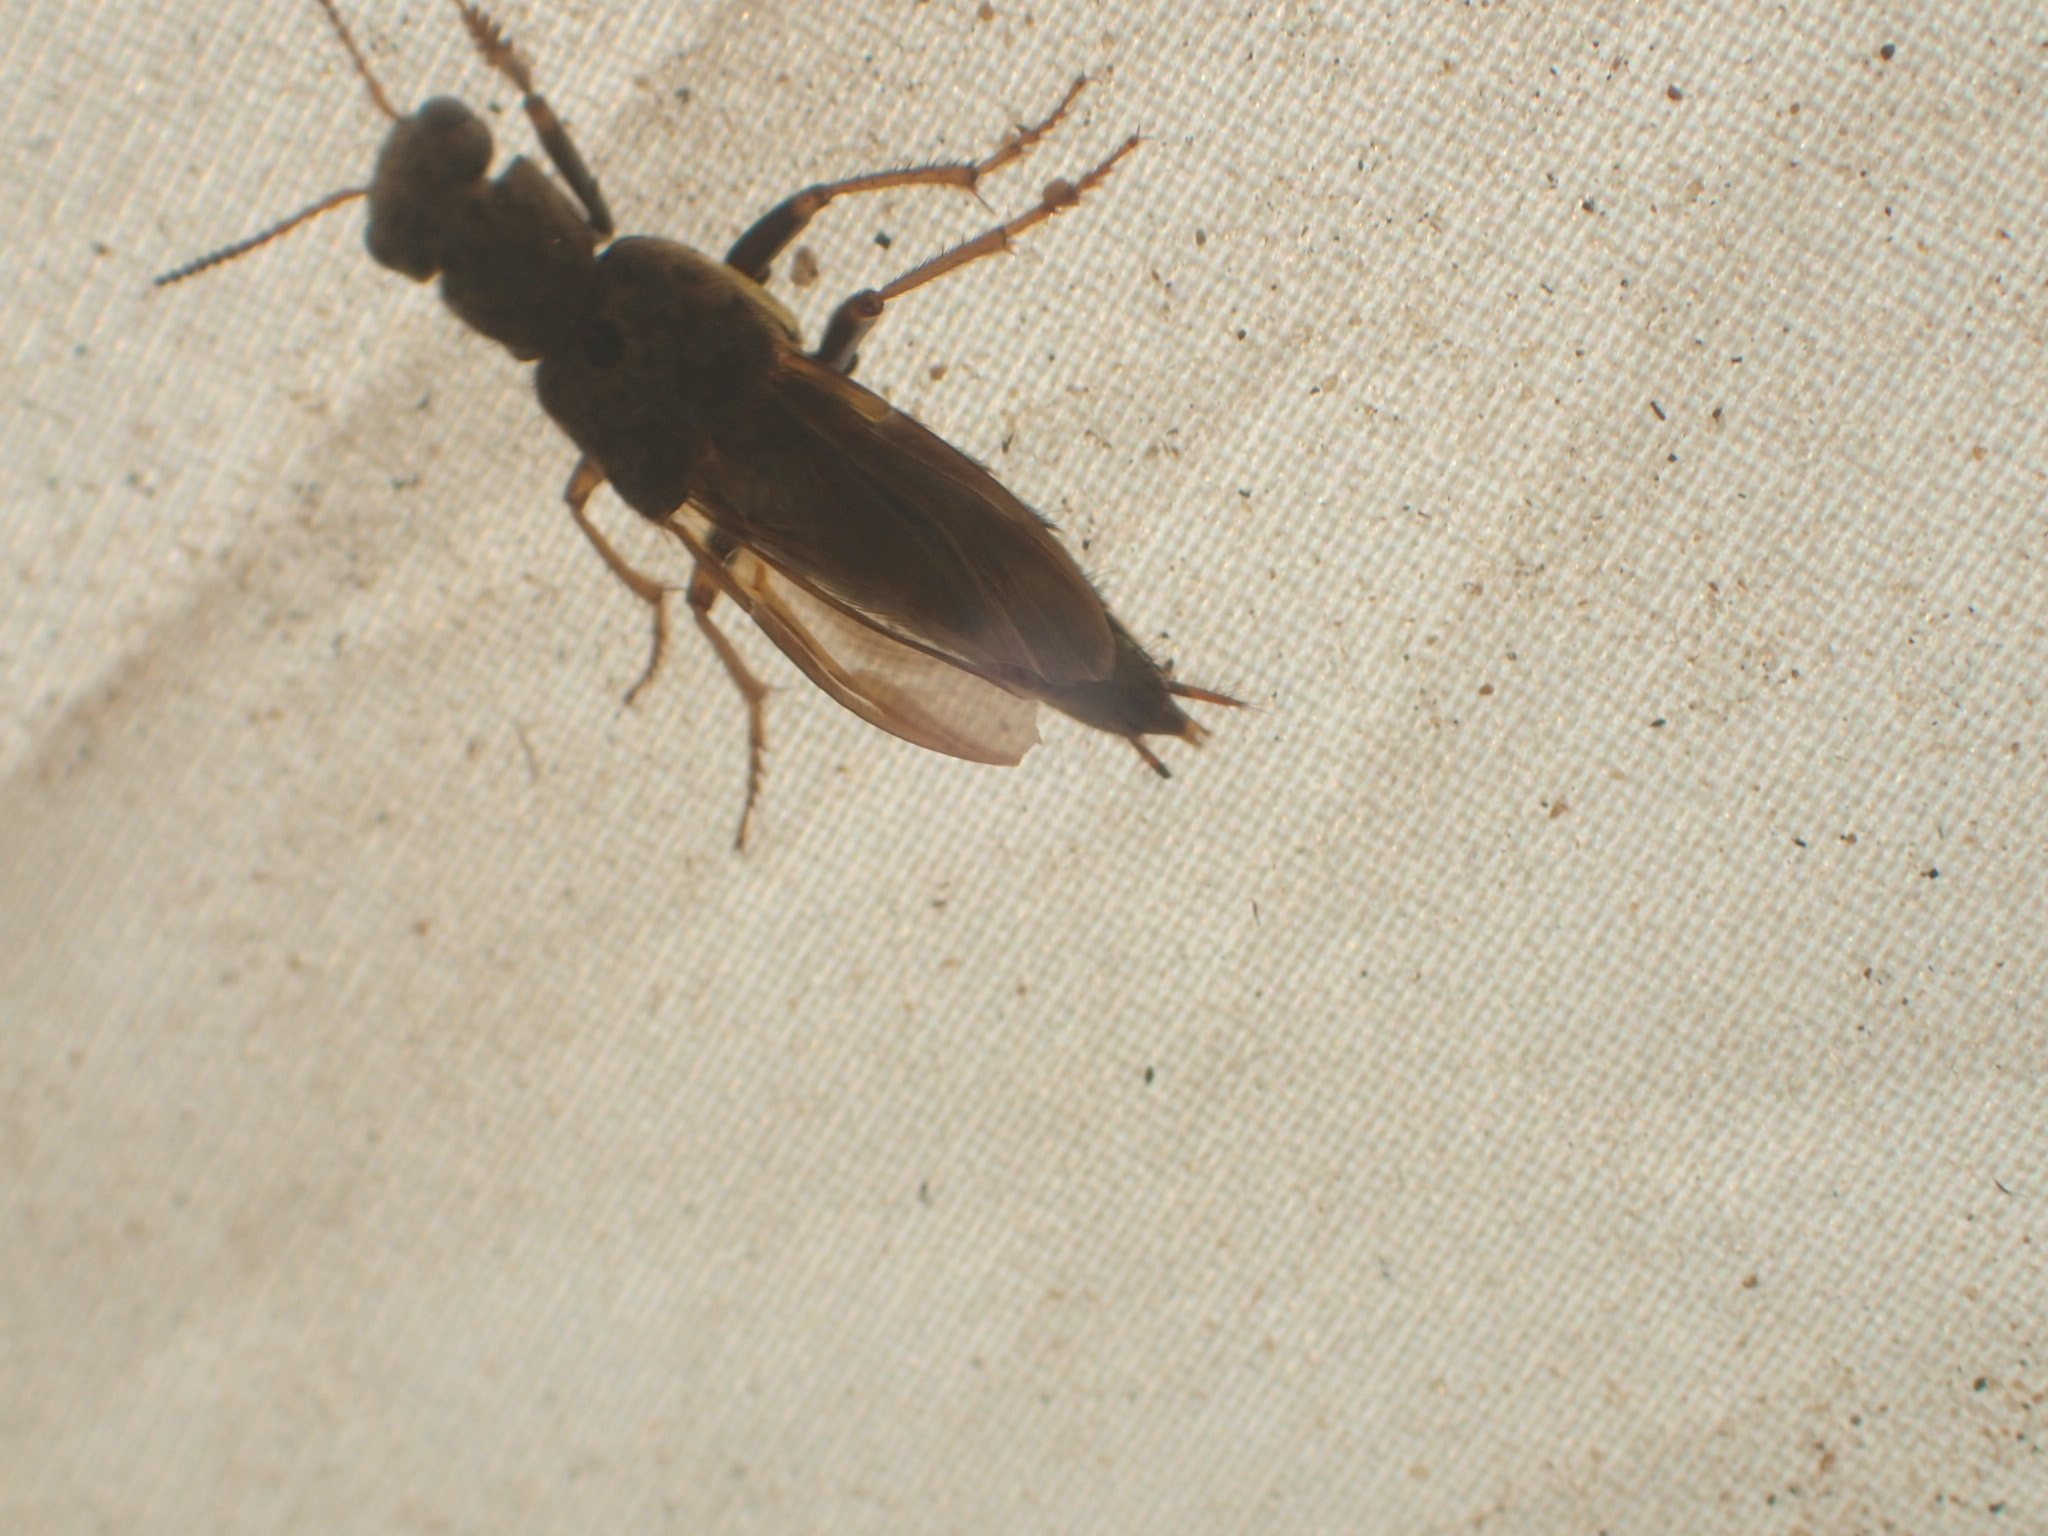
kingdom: Animalia
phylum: Arthropoda
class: Insecta
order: Coleoptera
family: Staphylinidae
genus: Ontholestes
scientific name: Ontholestes cingulatus
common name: Gold-and-brown rove beetle
